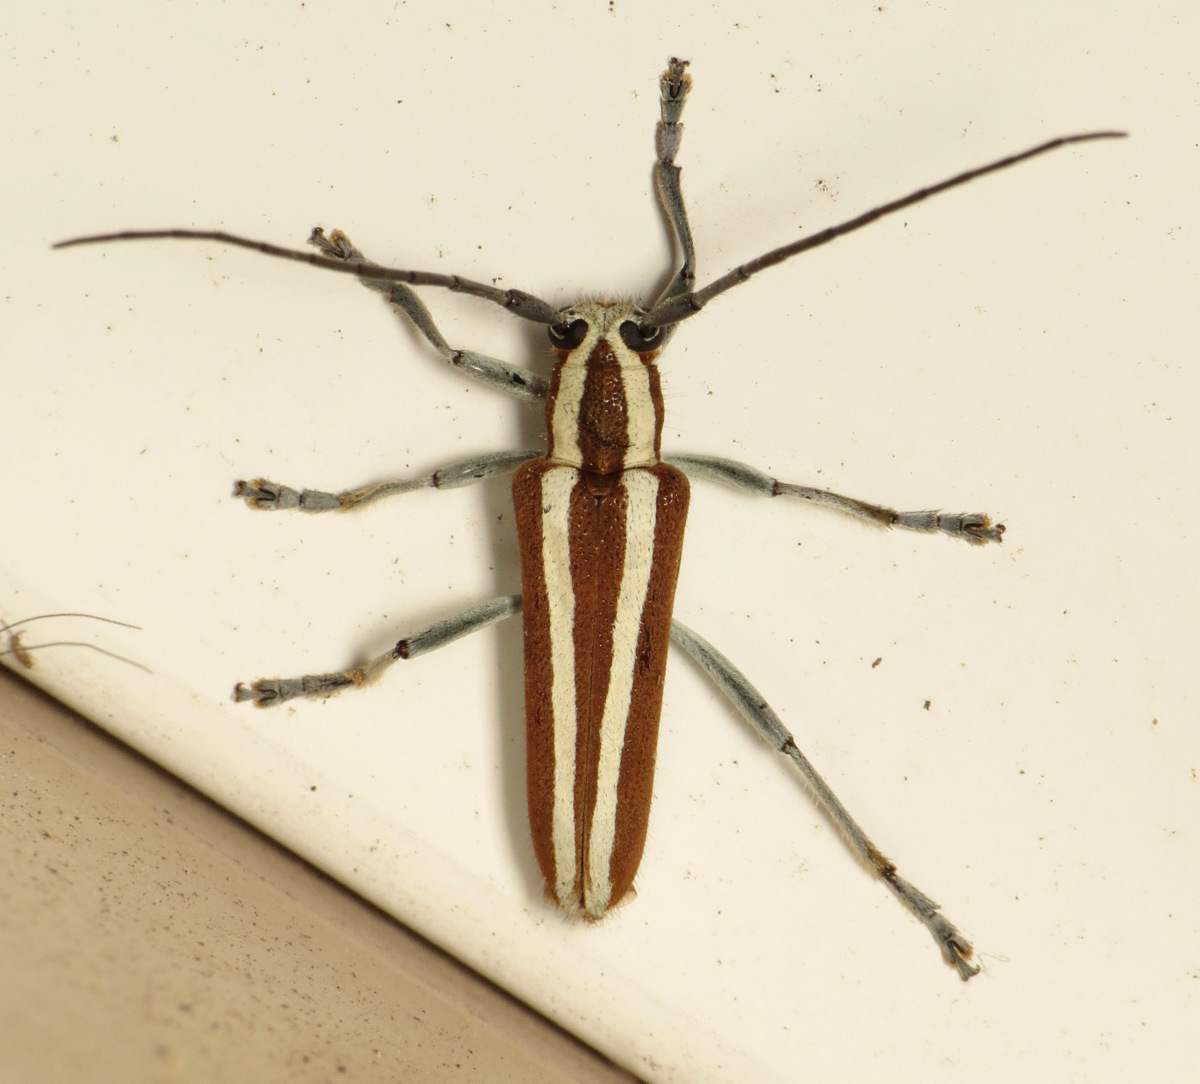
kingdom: Animalia
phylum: Arthropoda
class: Insecta
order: Coleoptera
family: Cerambycidae
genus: Saperda
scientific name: Saperda candida
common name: Round-headed borer
